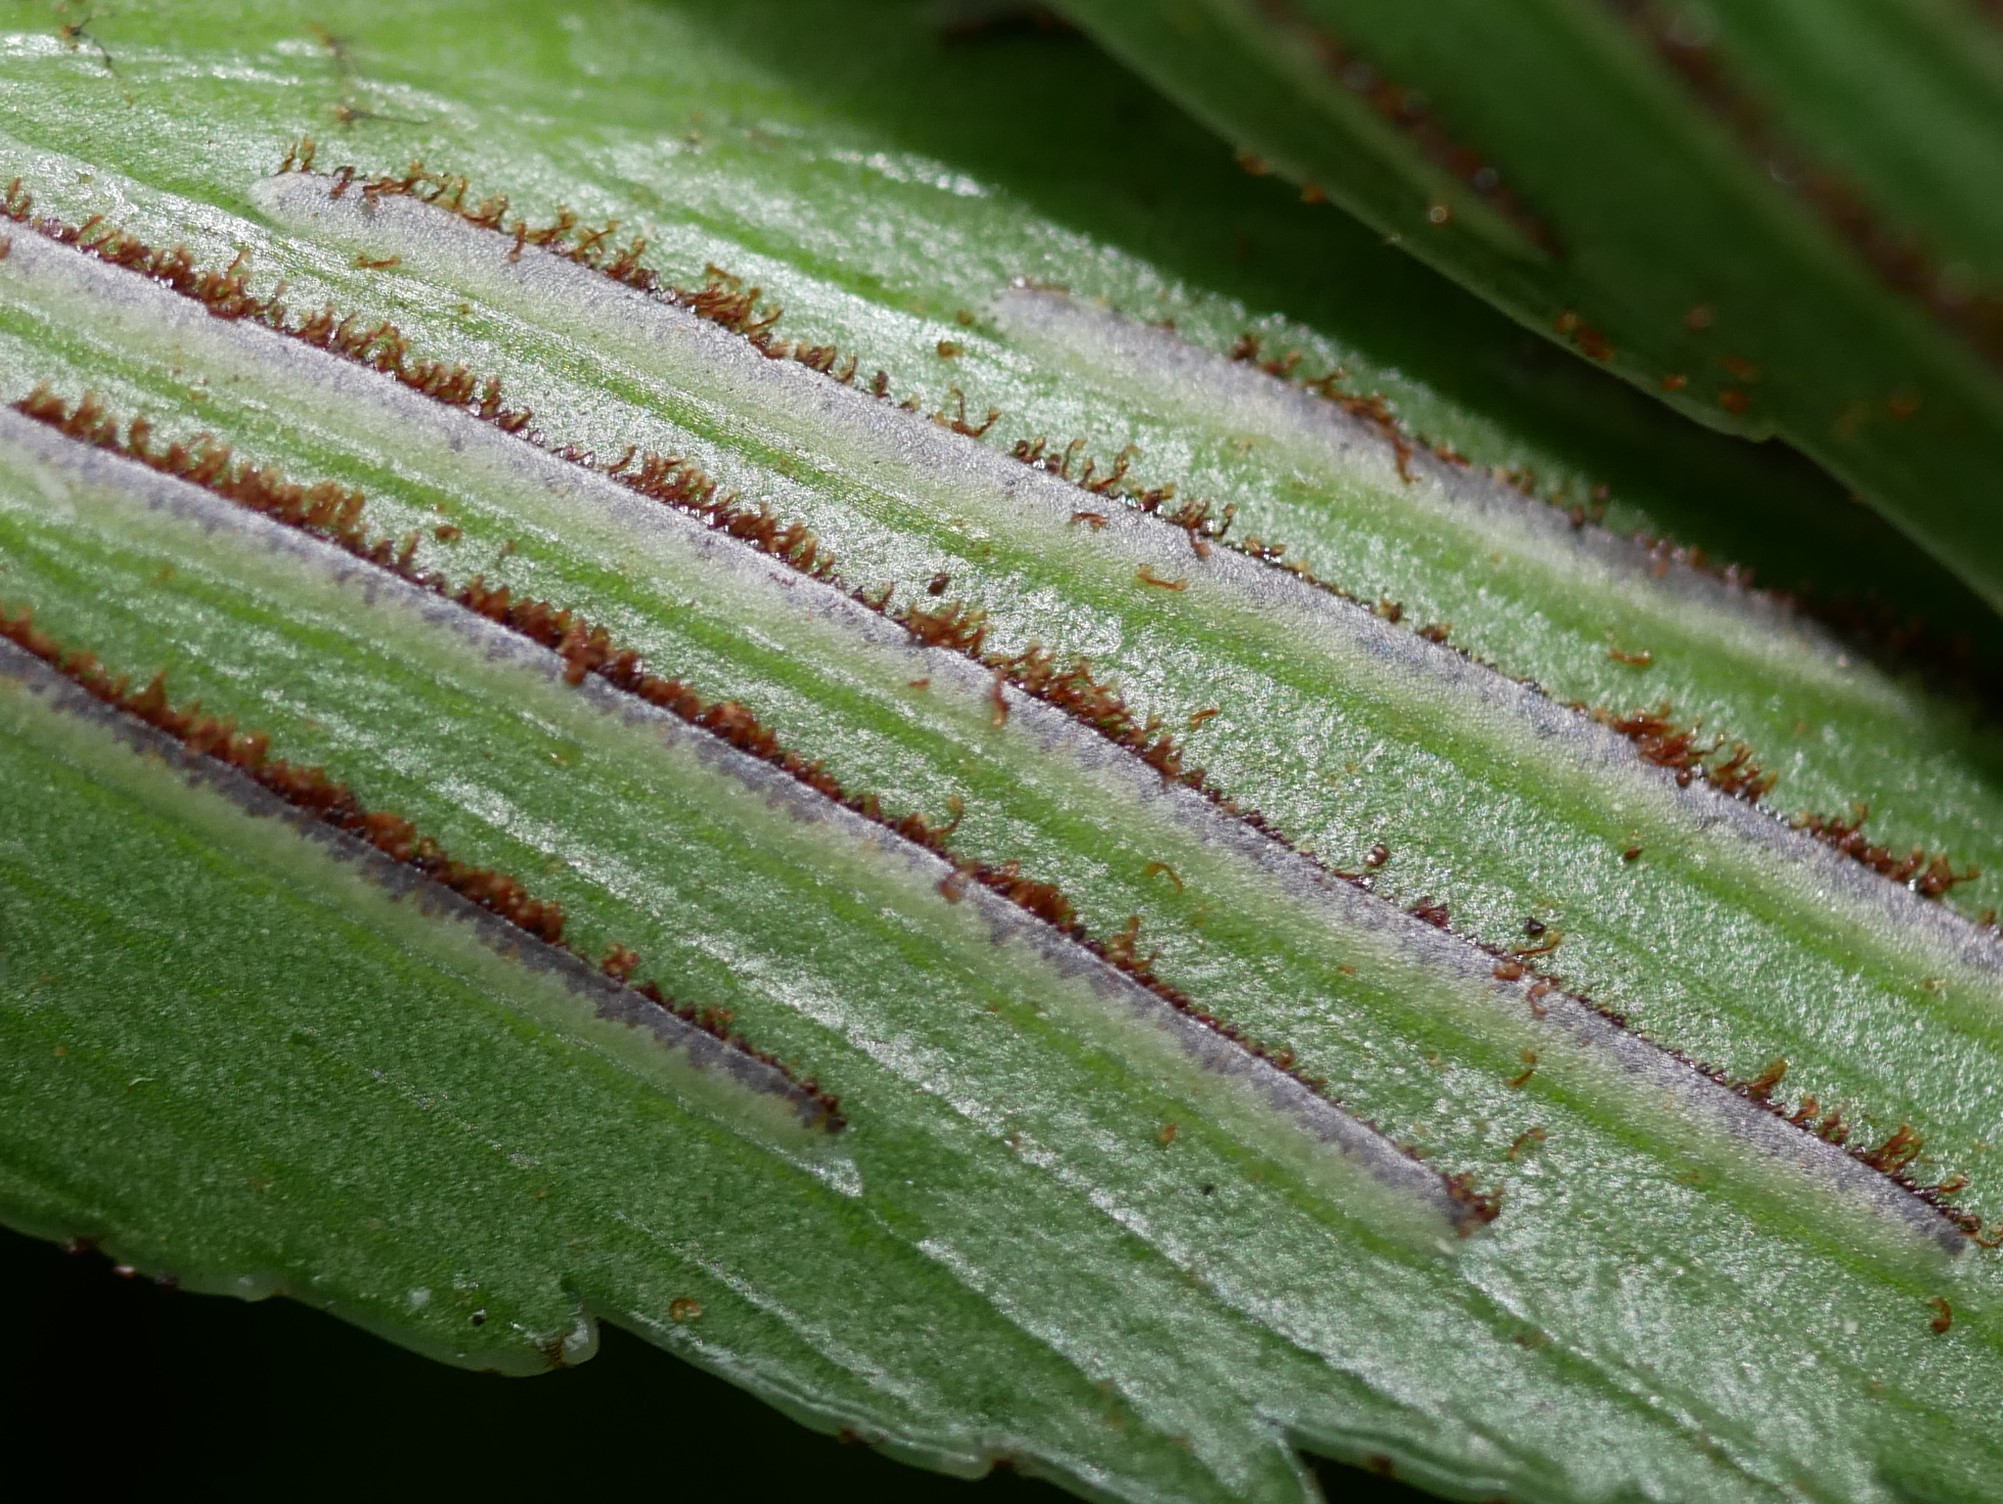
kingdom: Plantae
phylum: Tracheophyta
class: Polypodiopsida
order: Polypodiales
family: Aspleniaceae
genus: Asplenium
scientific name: Asplenium oblongifolium
